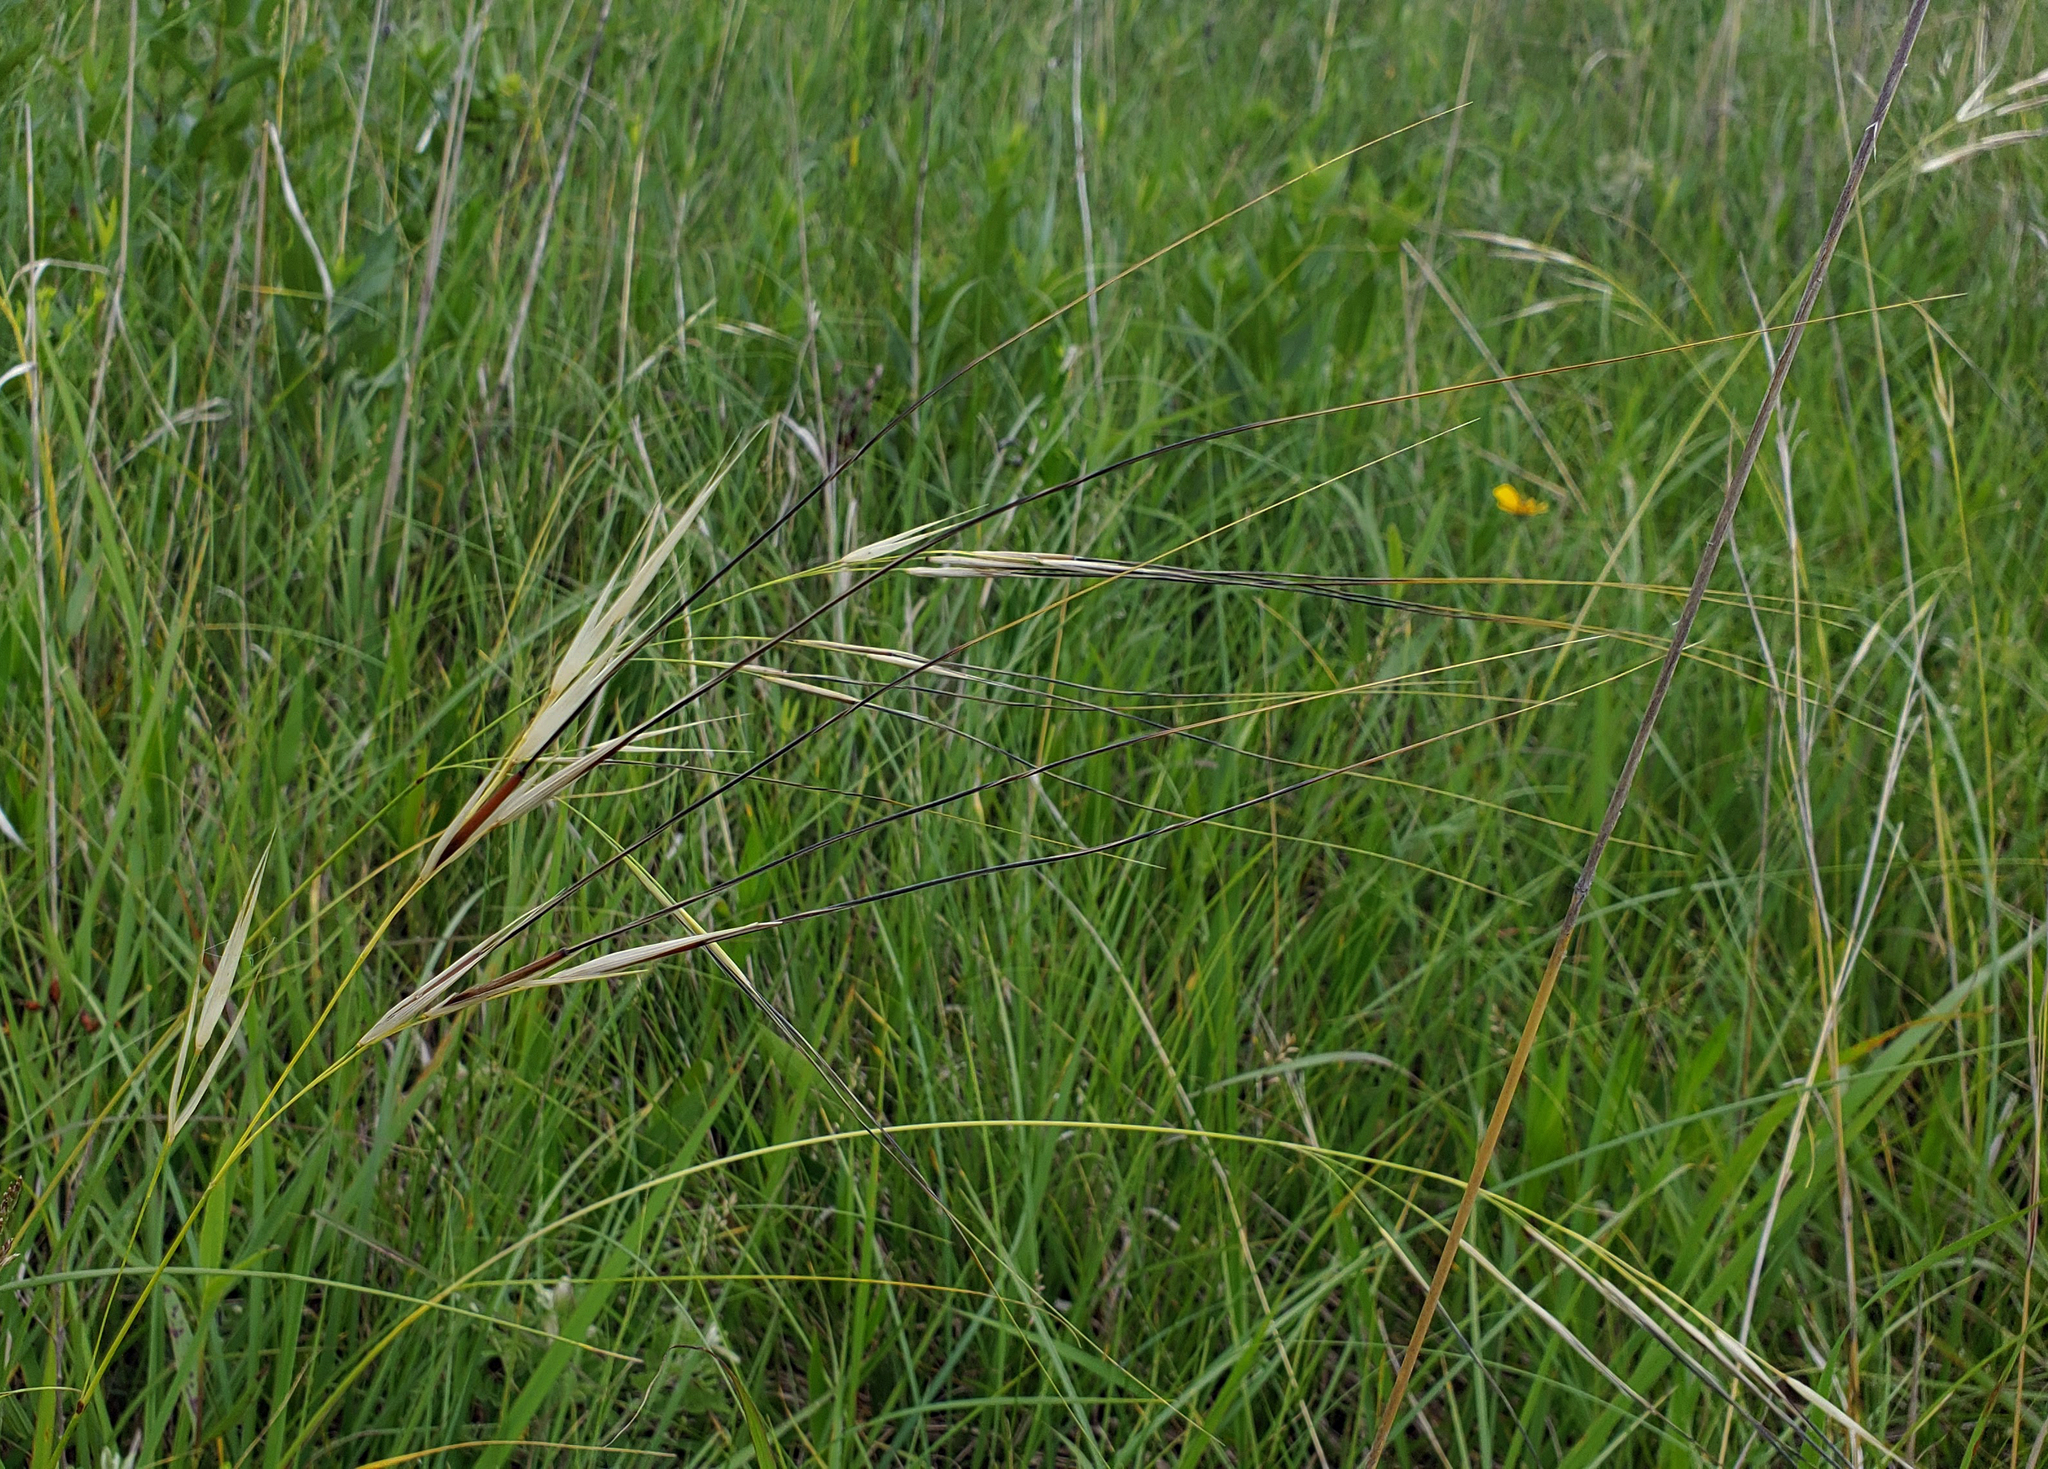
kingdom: Plantae
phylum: Tracheophyta
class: Liliopsida
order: Poales
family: Poaceae
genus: Hesperostipa
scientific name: Hesperostipa spartea
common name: Porcupine grass
